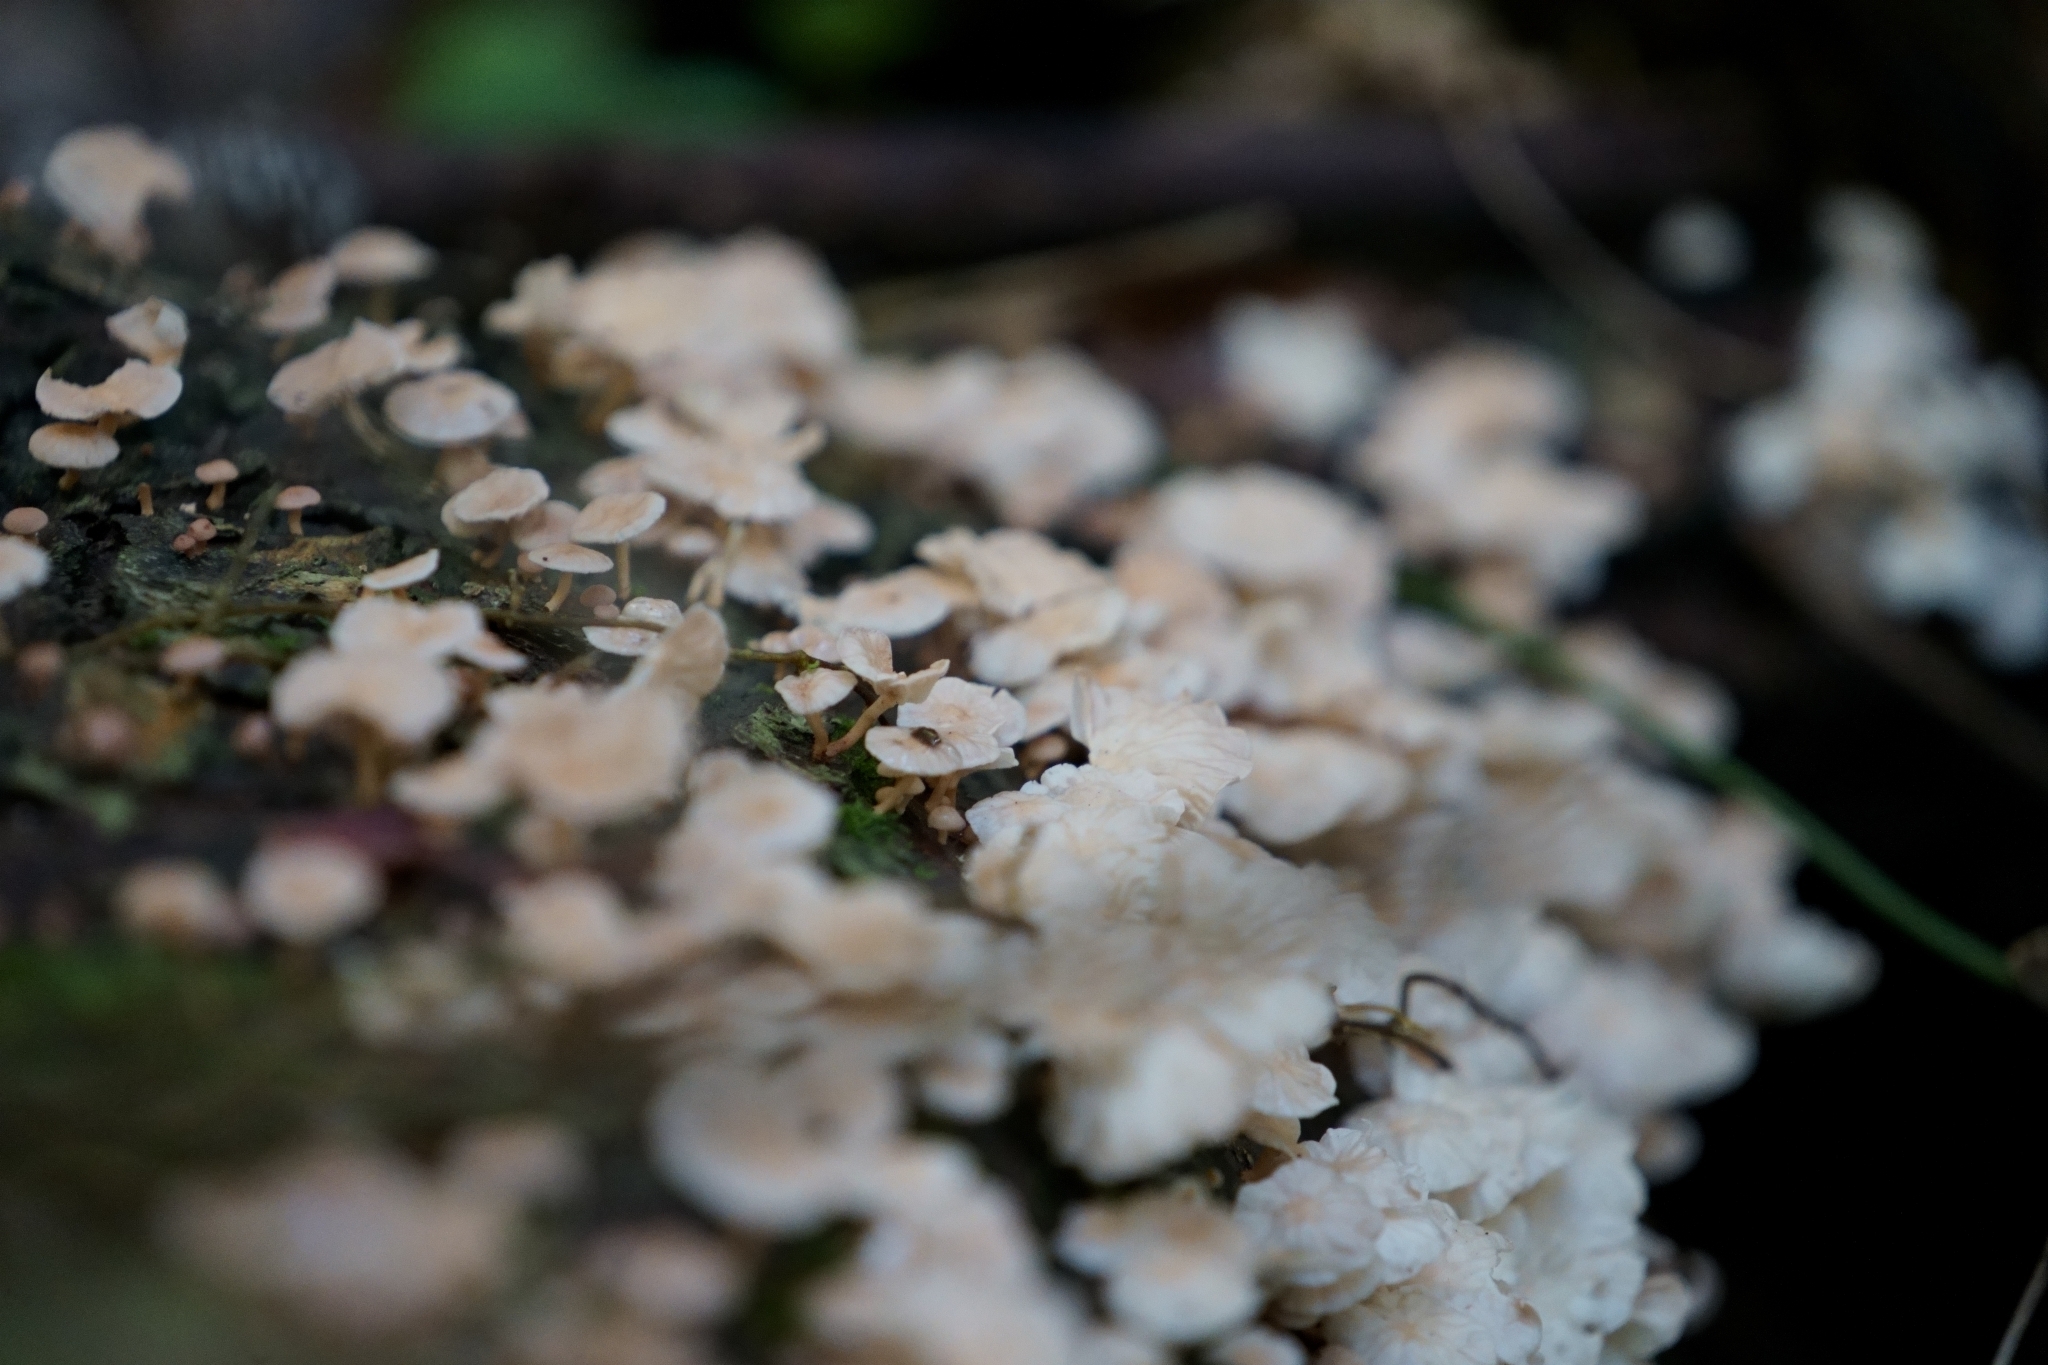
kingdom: Fungi
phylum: Basidiomycota
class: Agaricomycetes
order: Agaricales
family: Omphalotaceae
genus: Marasmiellus
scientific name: Marasmiellus alliiodorus
